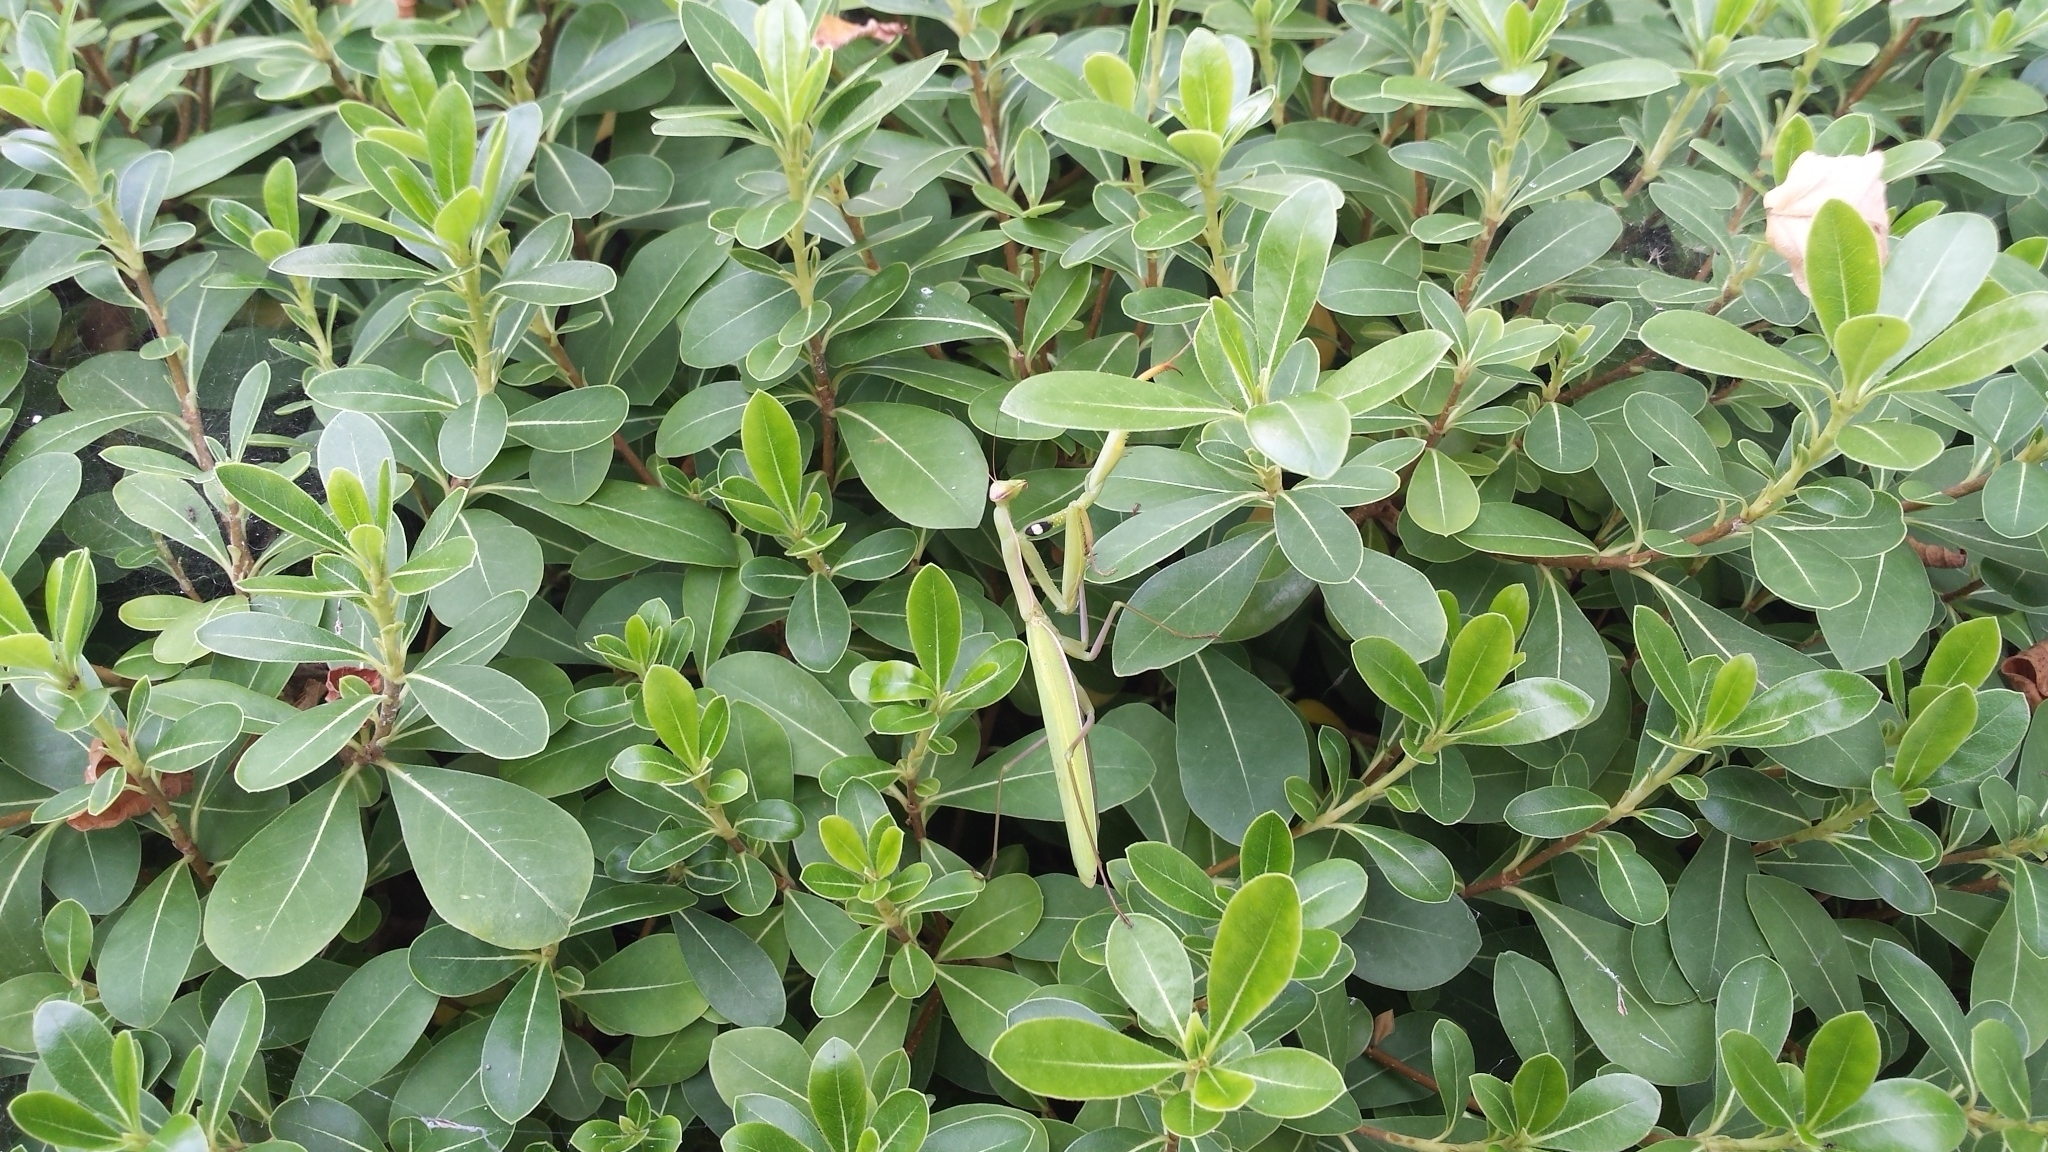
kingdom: Animalia
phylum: Arthropoda
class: Insecta
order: Mantodea
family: Mantidae
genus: Mantis
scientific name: Mantis religiosa
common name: Praying mantis
